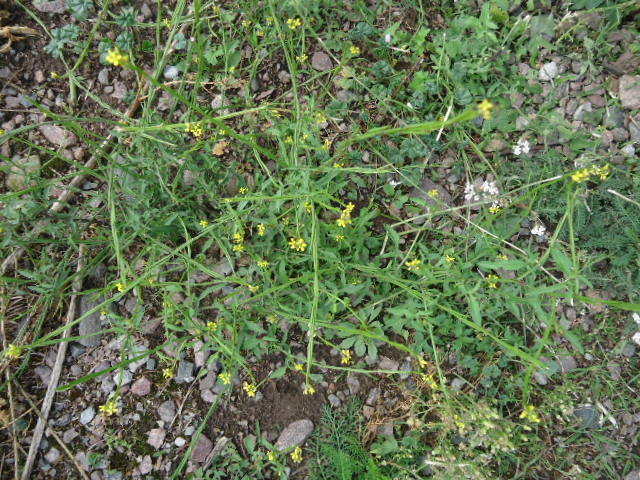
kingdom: Plantae
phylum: Tracheophyta
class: Magnoliopsida
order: Brassicales
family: Brassicaceae
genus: Sisymbrium
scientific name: Sisymbrium officinale
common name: Hedge mustard
